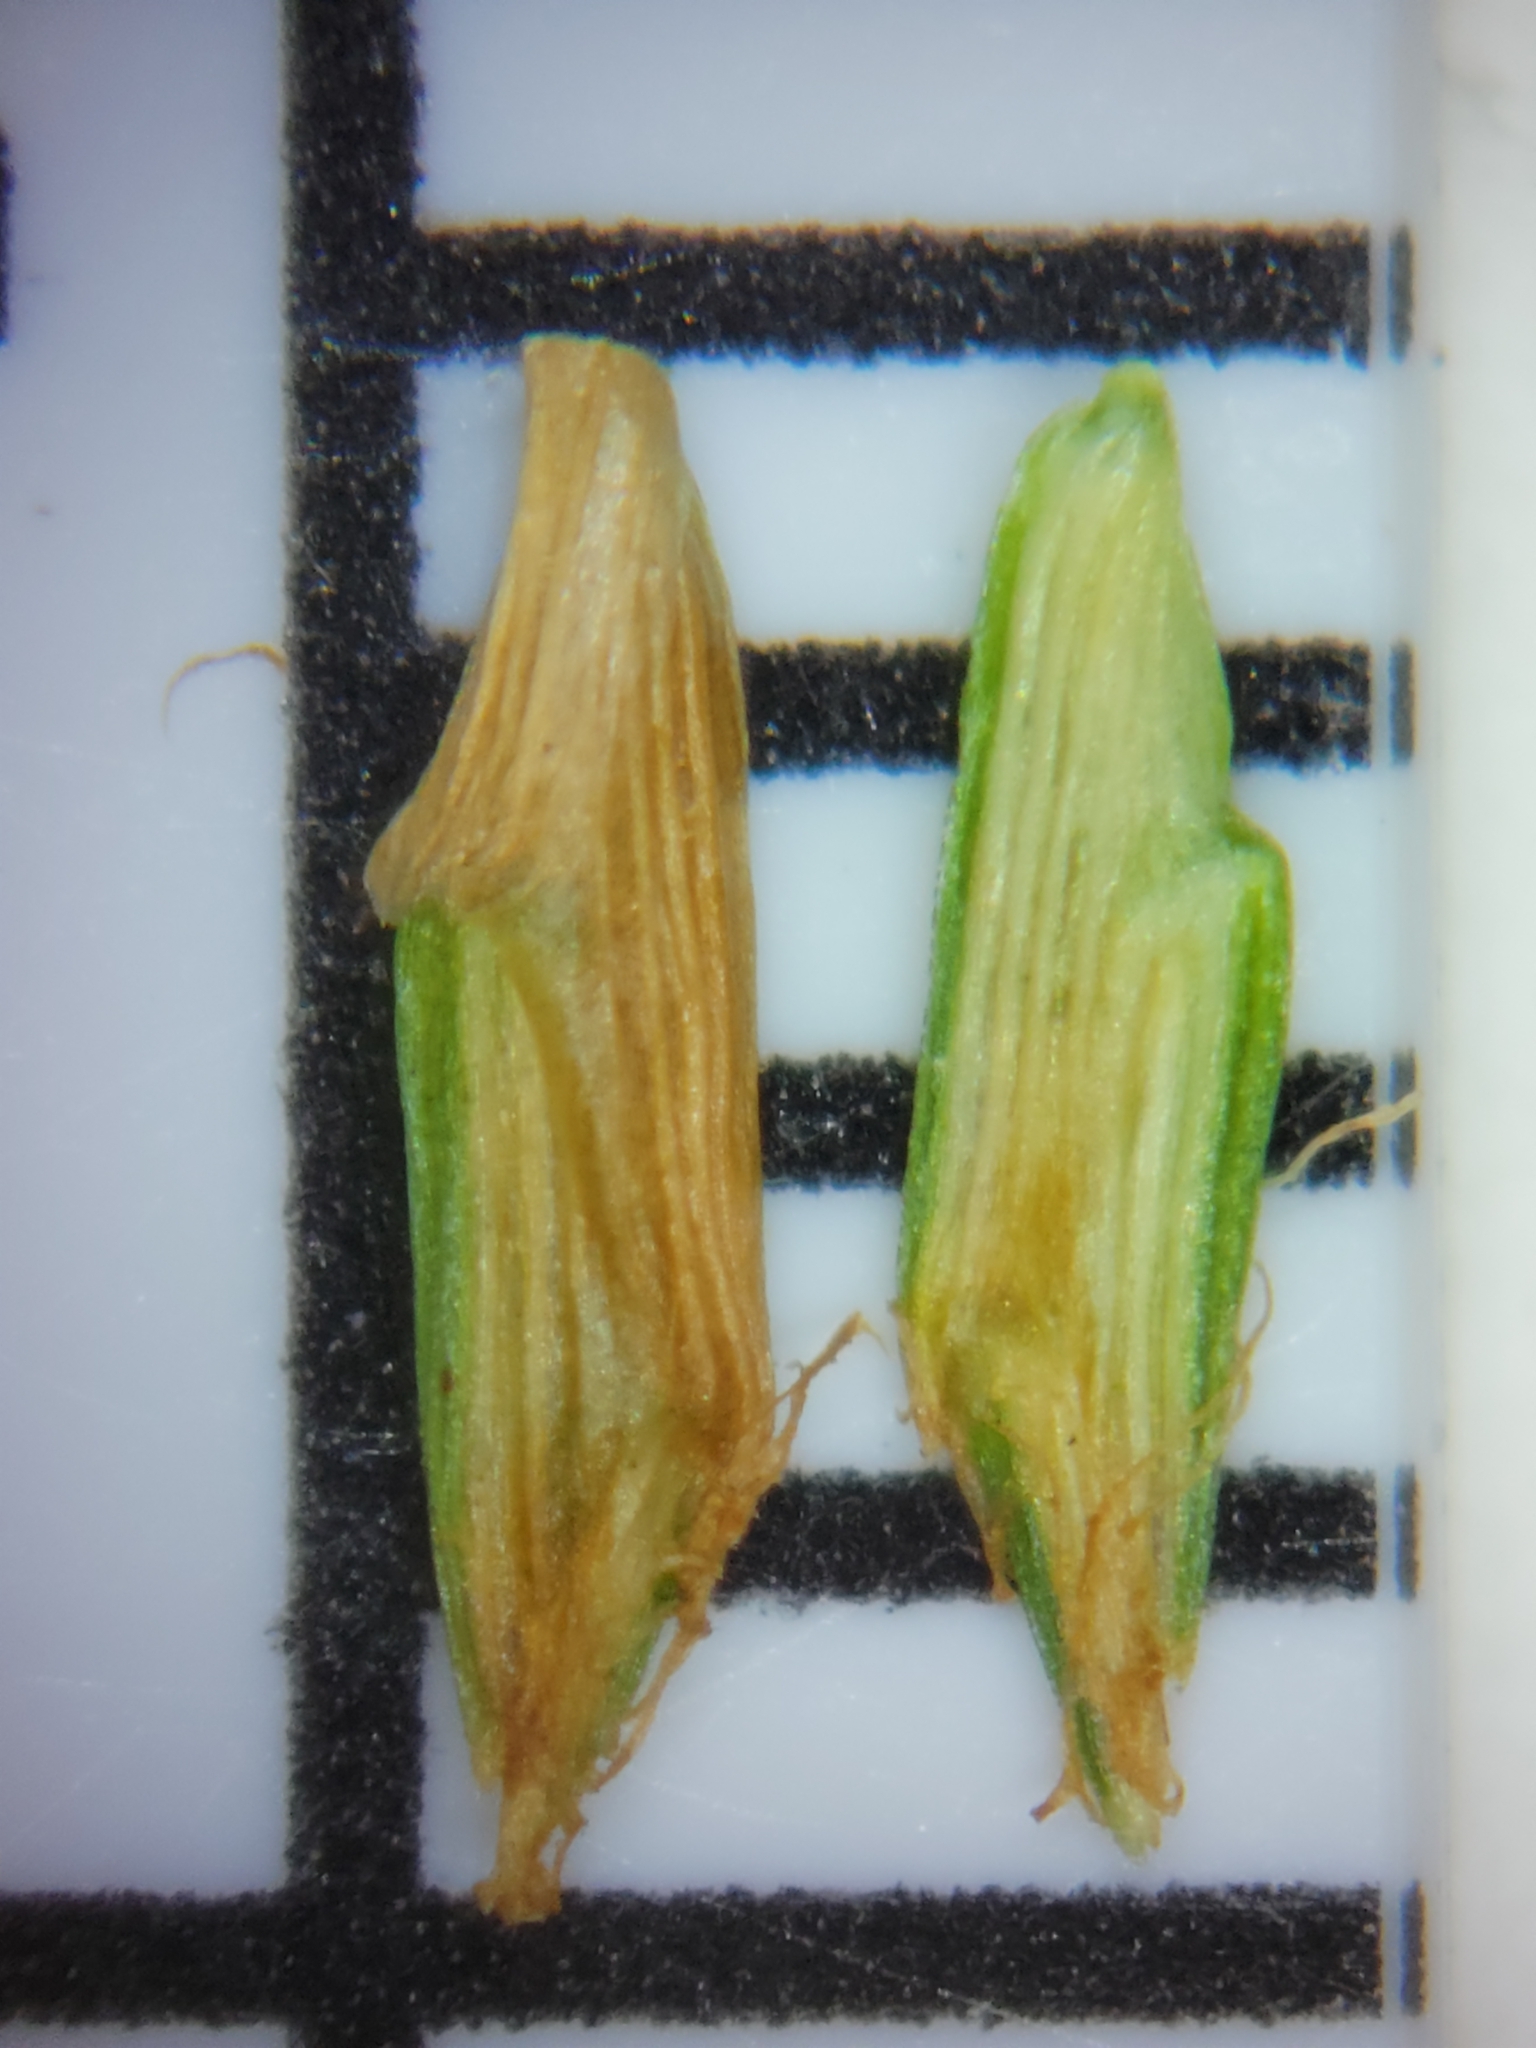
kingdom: Plantae
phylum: Tracheophyta
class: Liliopsida
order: Poales
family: Cyperaceae
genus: Cyperus
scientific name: Cyperus ovatus
